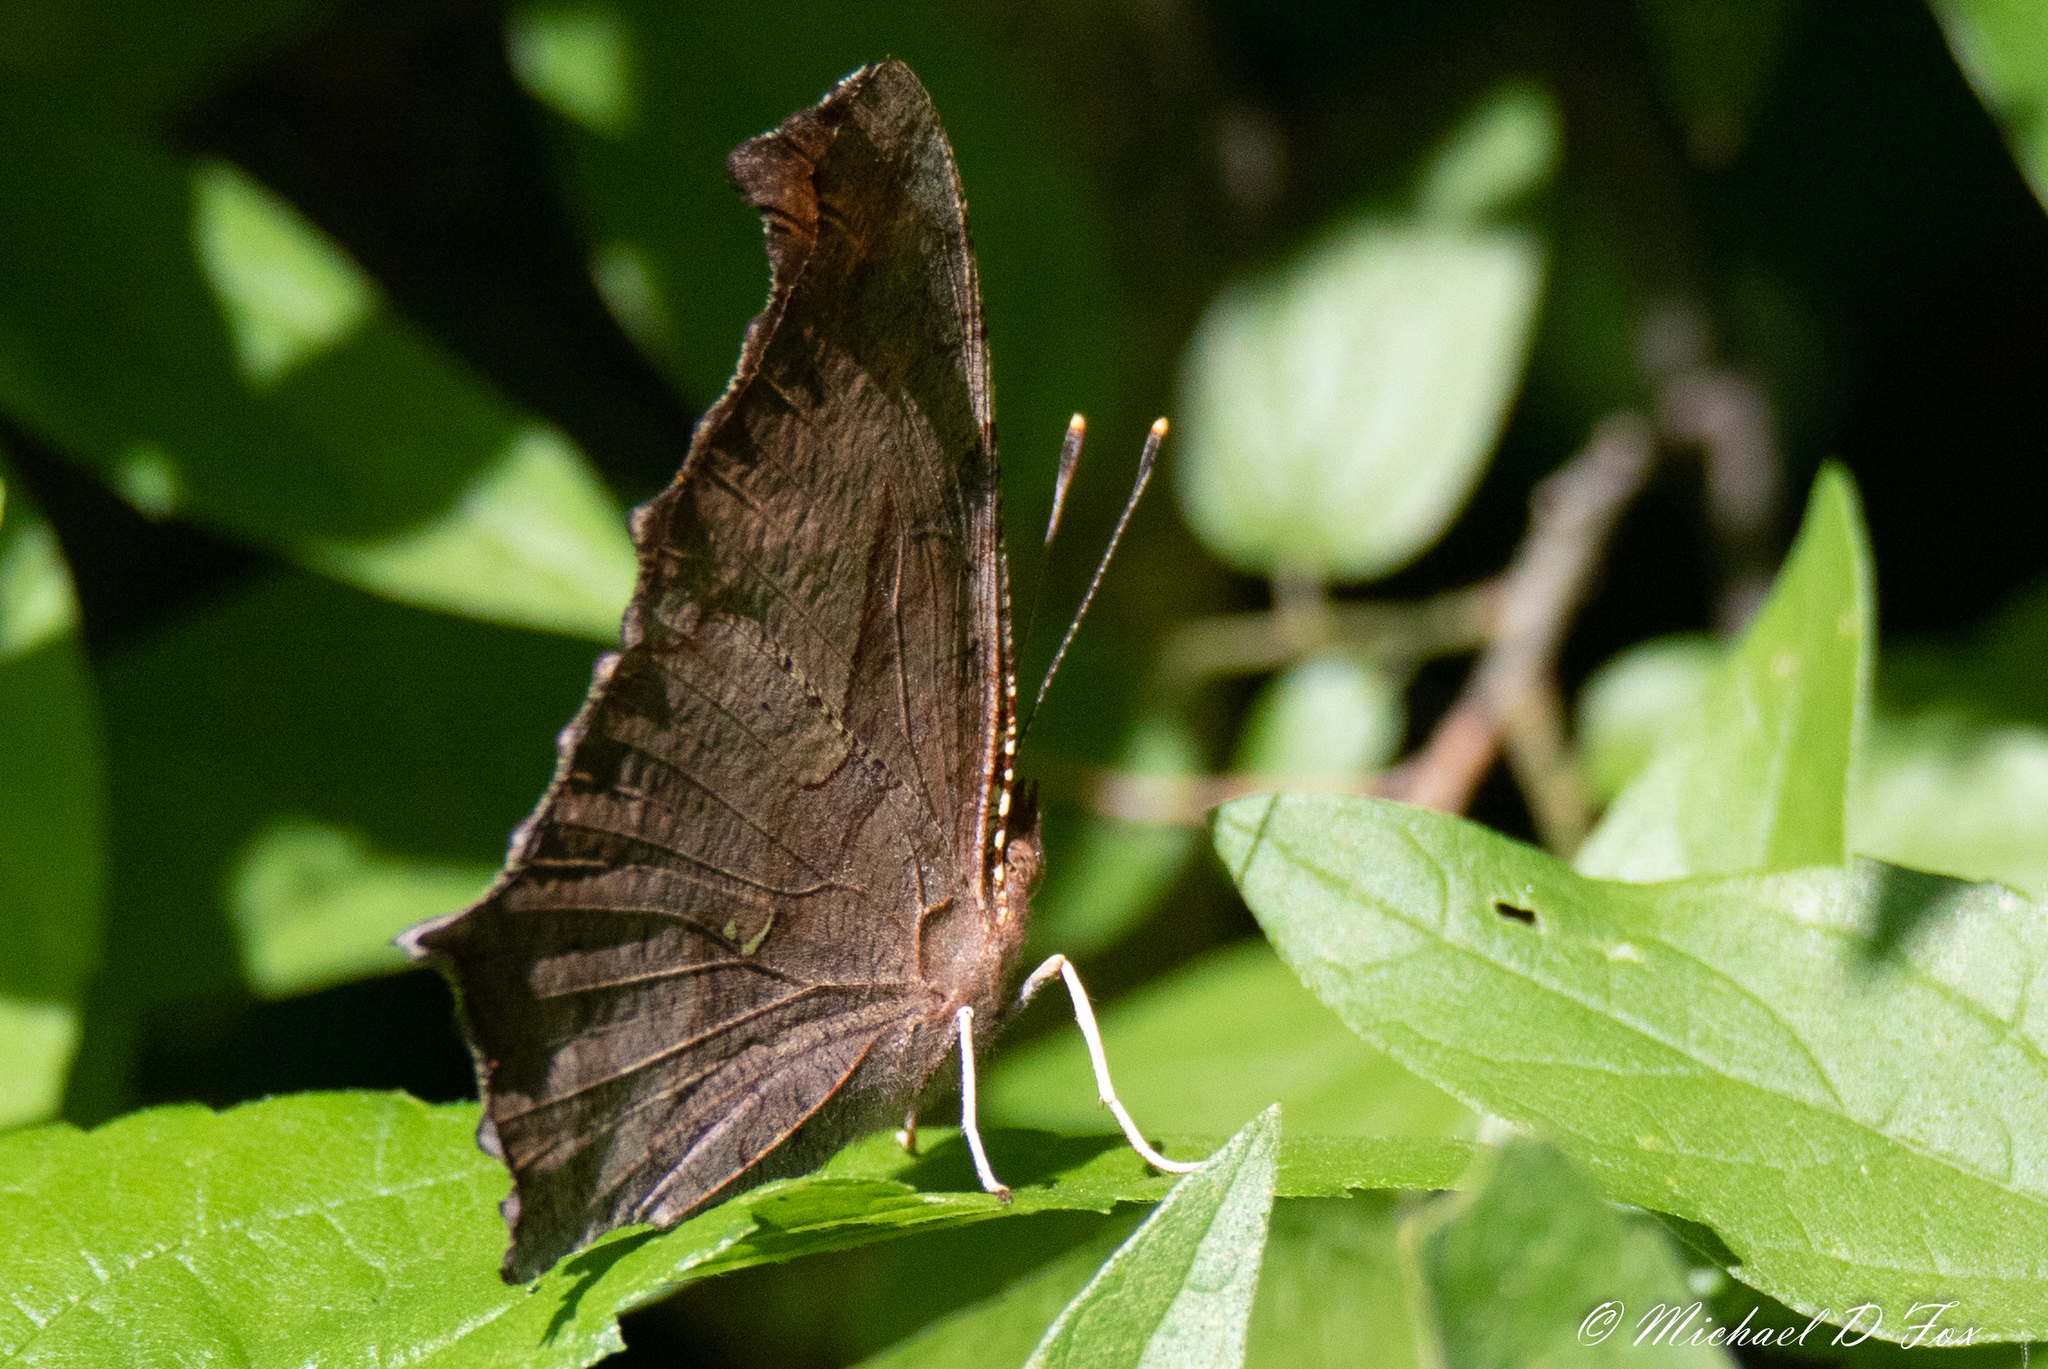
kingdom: Animalia
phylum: Arthropoda
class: Insecta
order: Lepidoptera
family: Nymphalidae
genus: Polygonia
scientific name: Polygonia interrogationis
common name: Question mark
